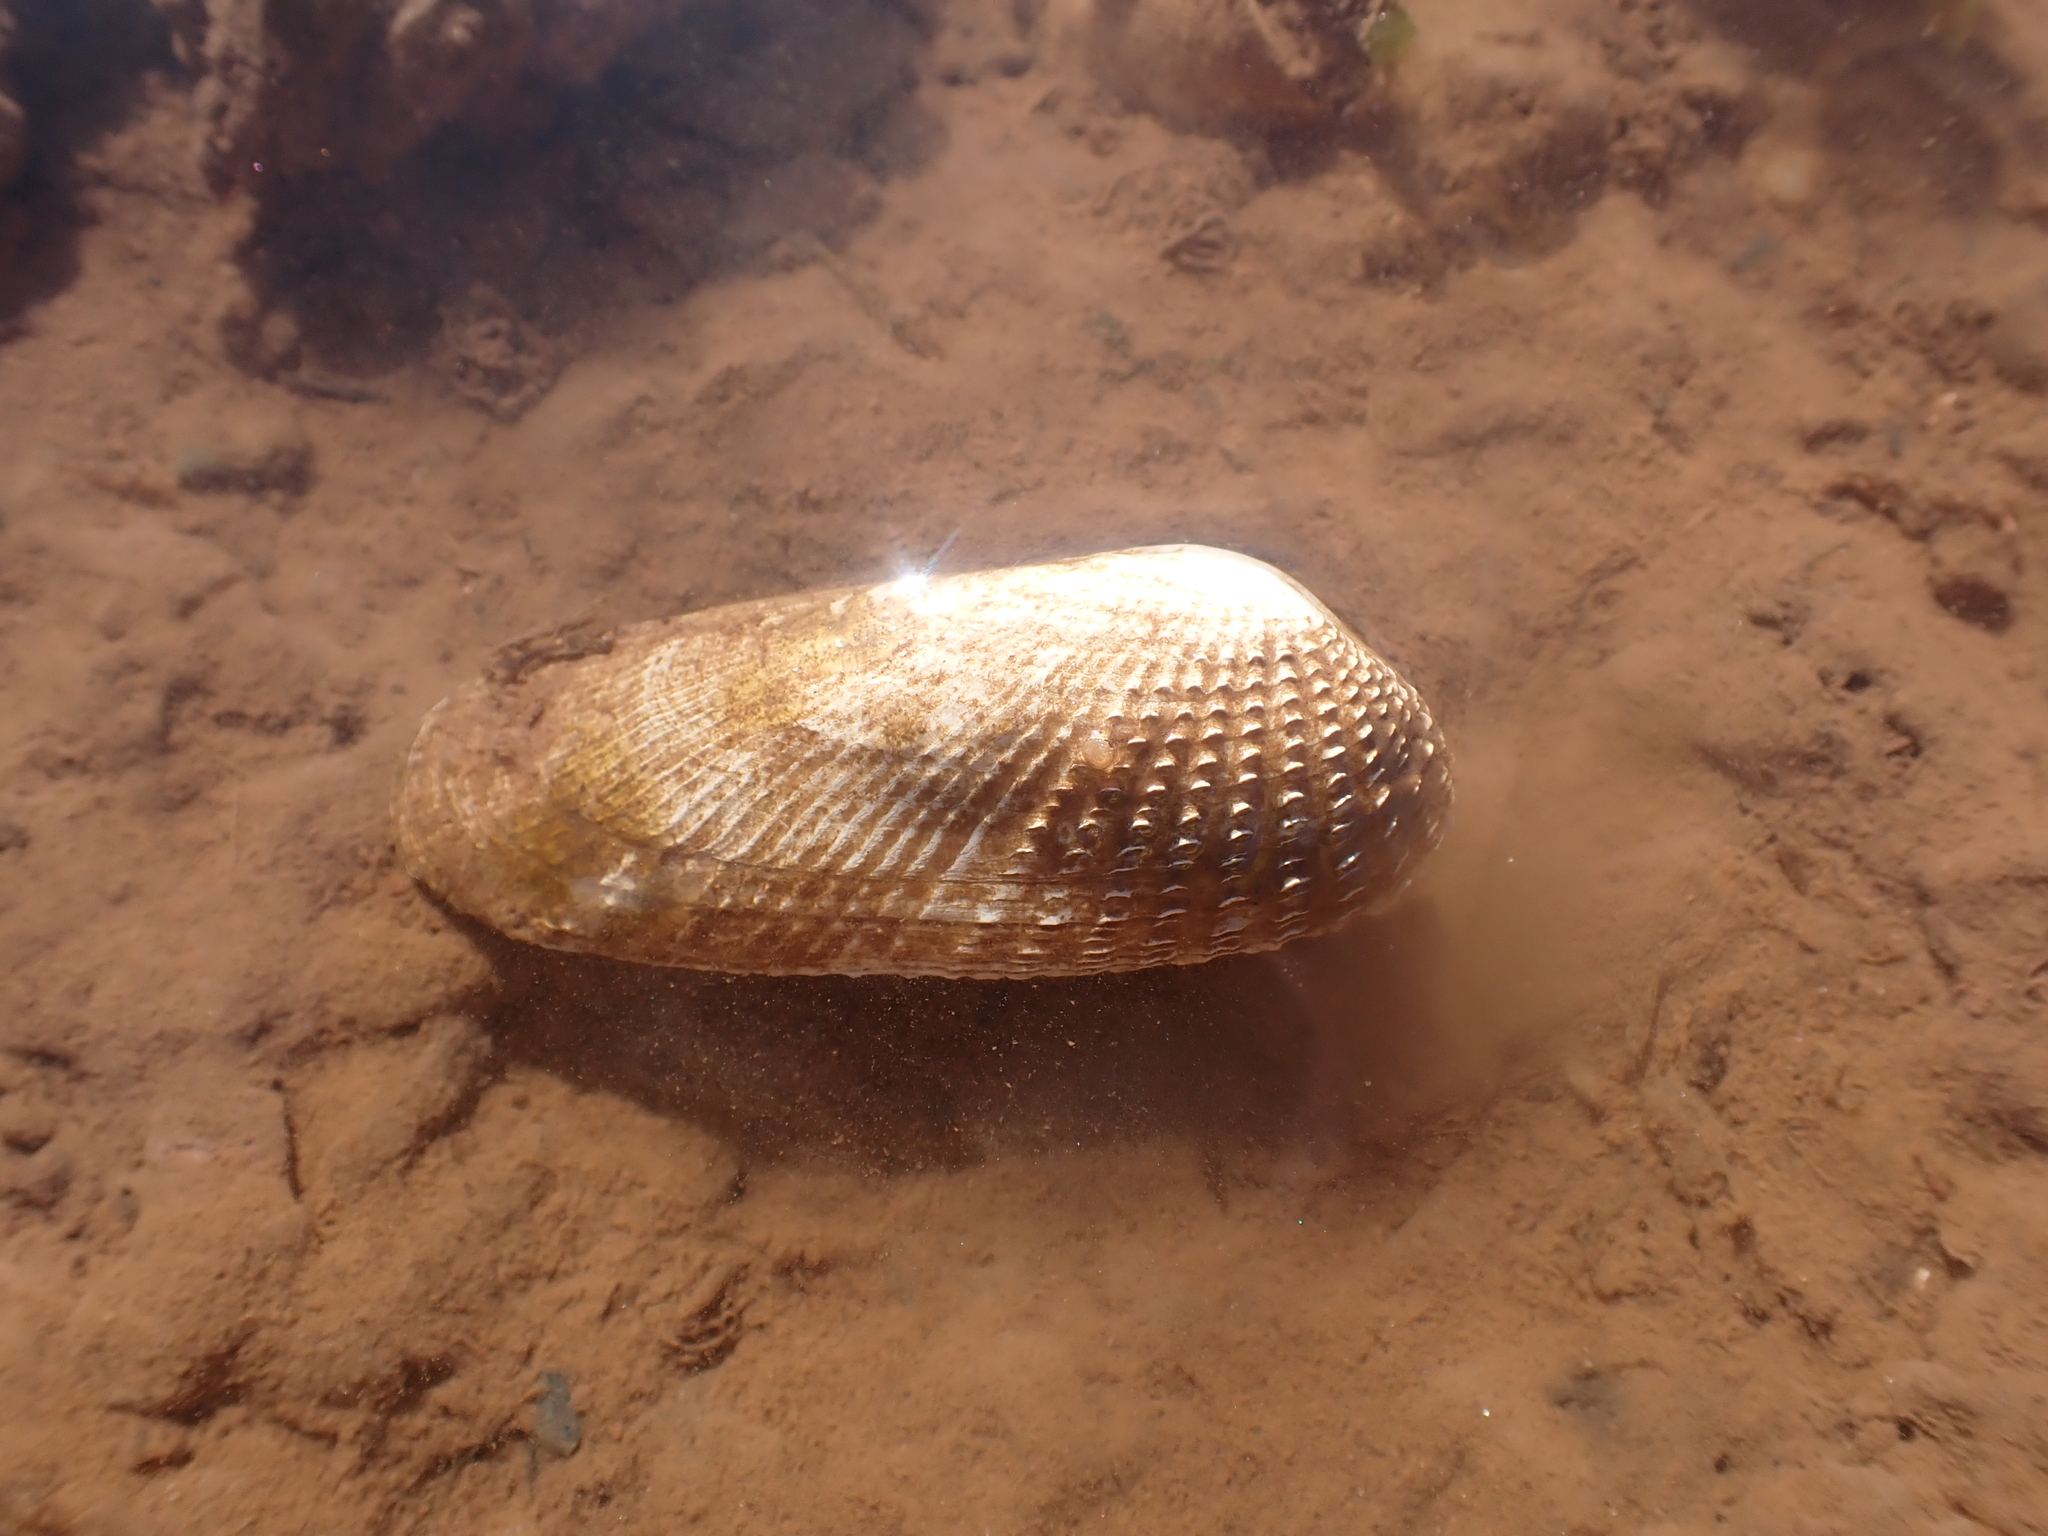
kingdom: Animalia
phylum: Mollusca
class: Bivalvia
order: Venerida
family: Veneridae
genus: Petricolaria
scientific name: Petricolaria pholadiformis
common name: American piddock
